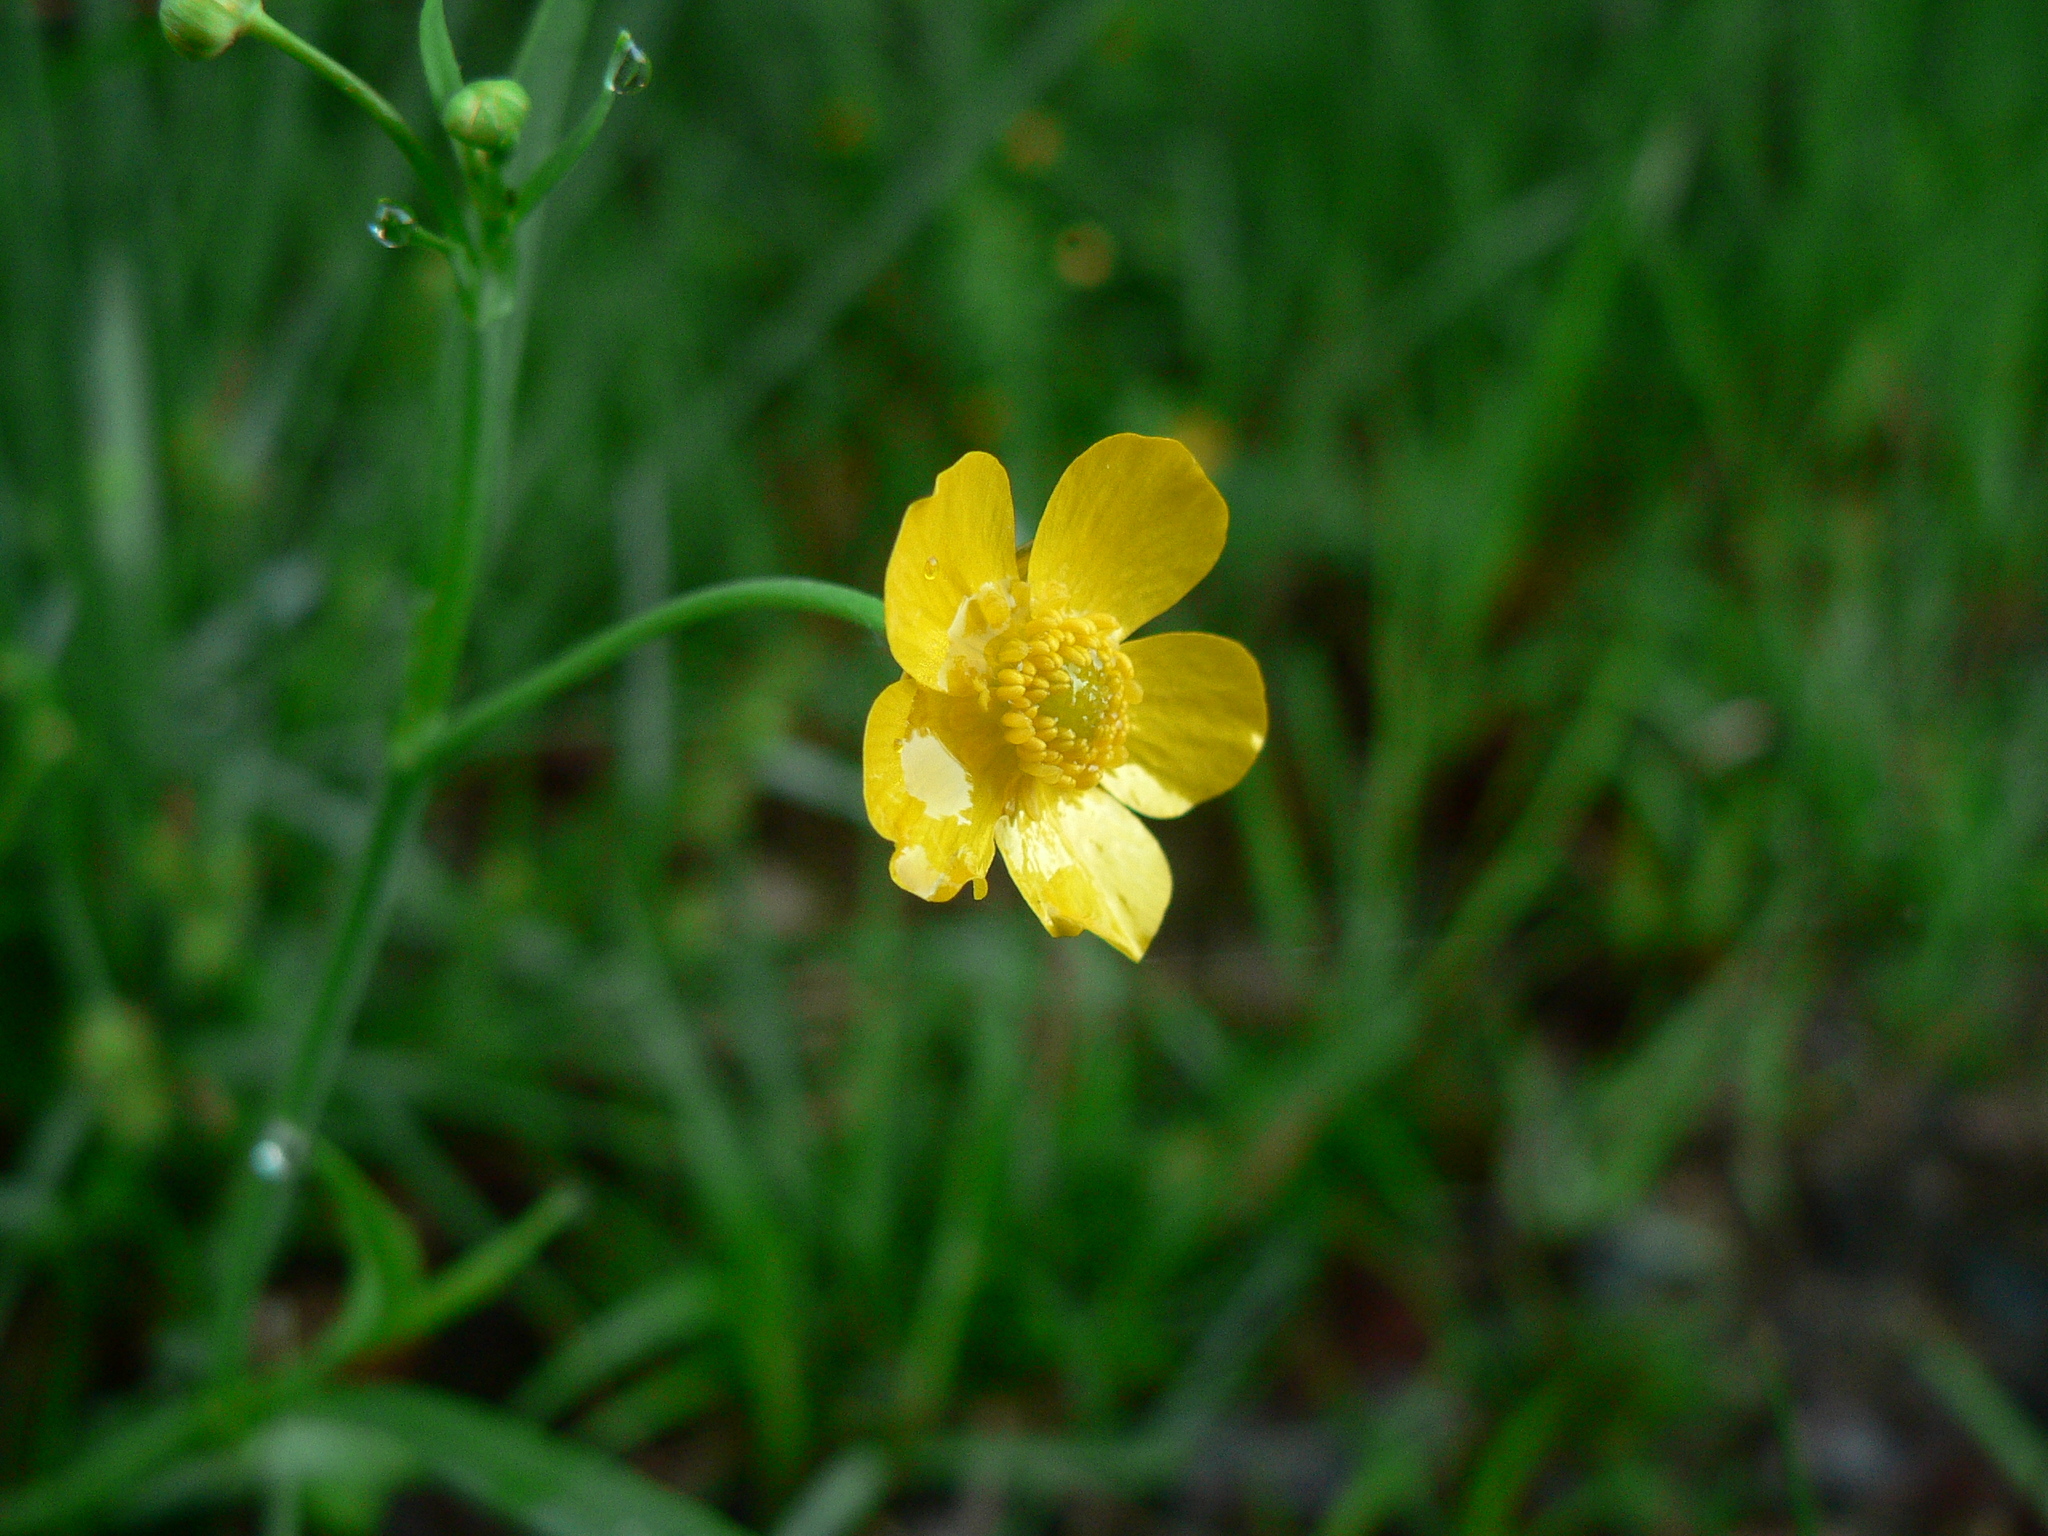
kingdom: Plantae
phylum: Tracheophyta
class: Magnoliopsida
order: Ranunculales
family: Ranunculaceae
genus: Ranunculus
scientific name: Ranunculus flammula
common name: Lesser spearwort
